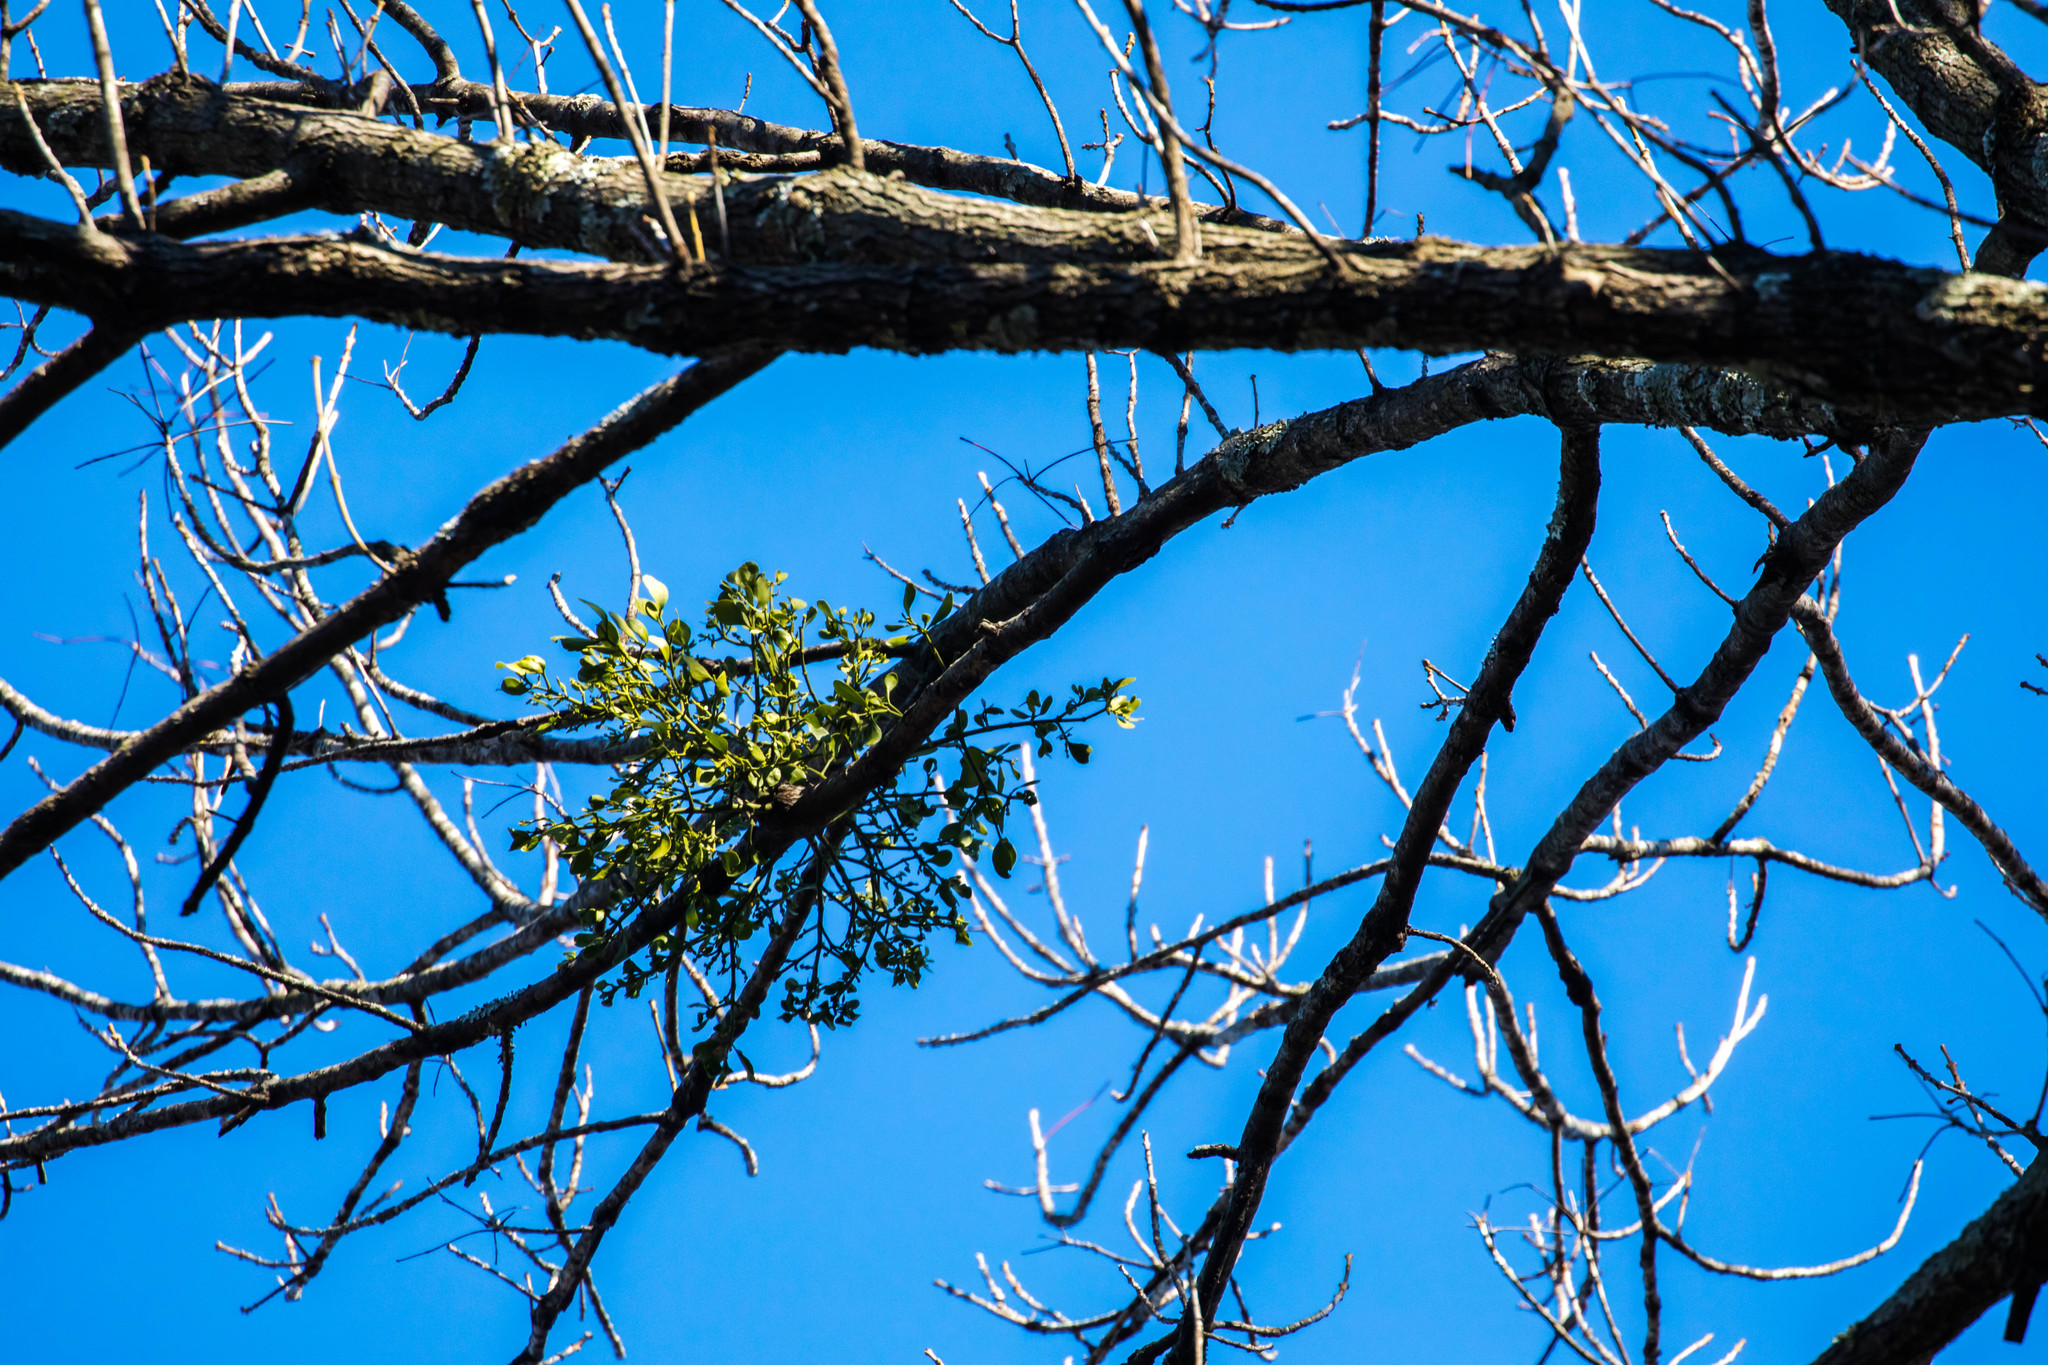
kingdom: Plantae
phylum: Tracheophyta
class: Magnoliopsida
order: Santalales
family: Viscaceae
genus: Phoradendron
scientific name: Phoradendron leucarpum
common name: Pacific mistletoe
